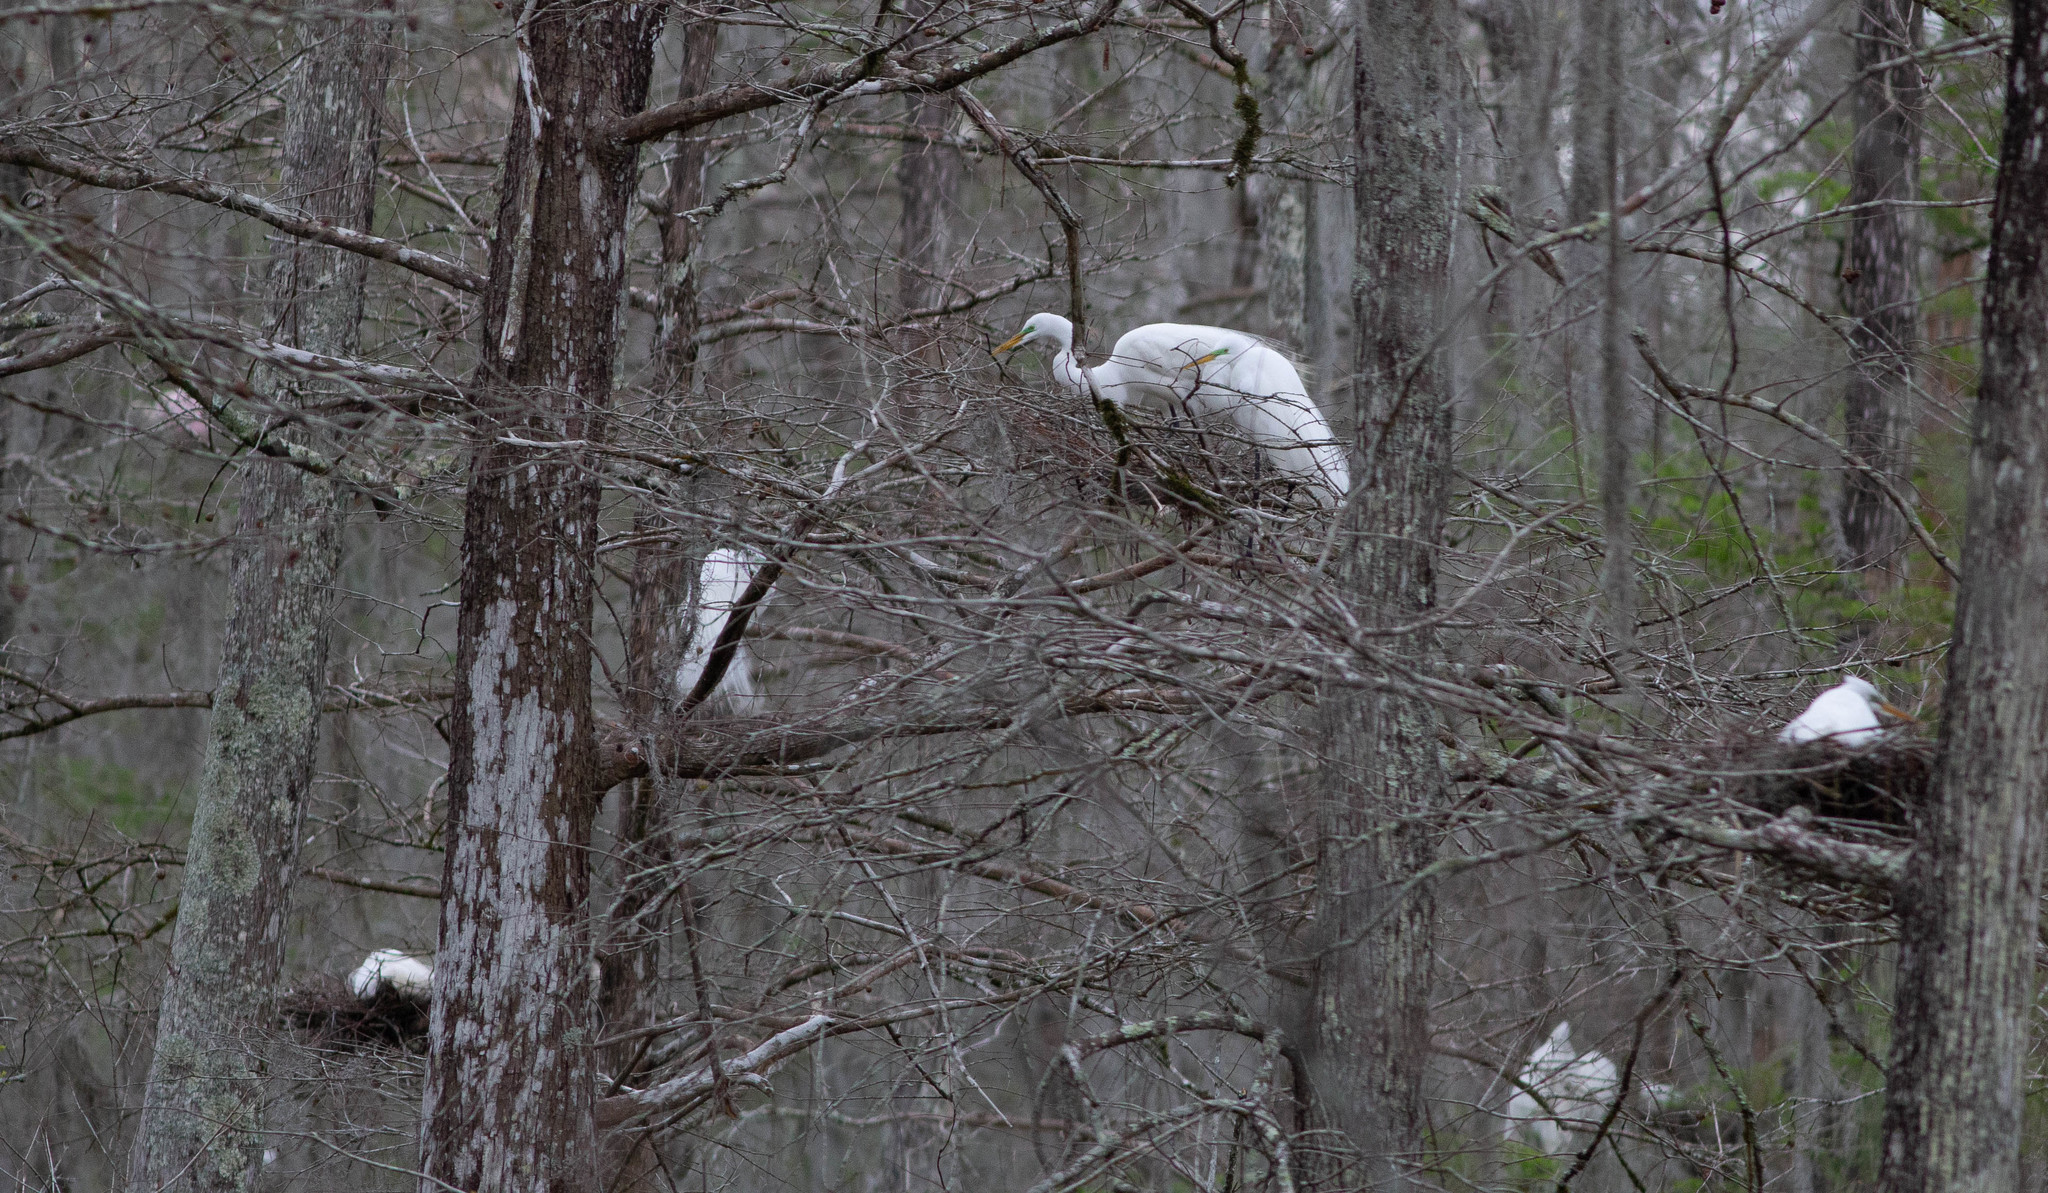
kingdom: Animalia
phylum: Chordata
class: Aves
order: Pelecaniformes
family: Ardeidae
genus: Ardea
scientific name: Ardea alba
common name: Great egret
